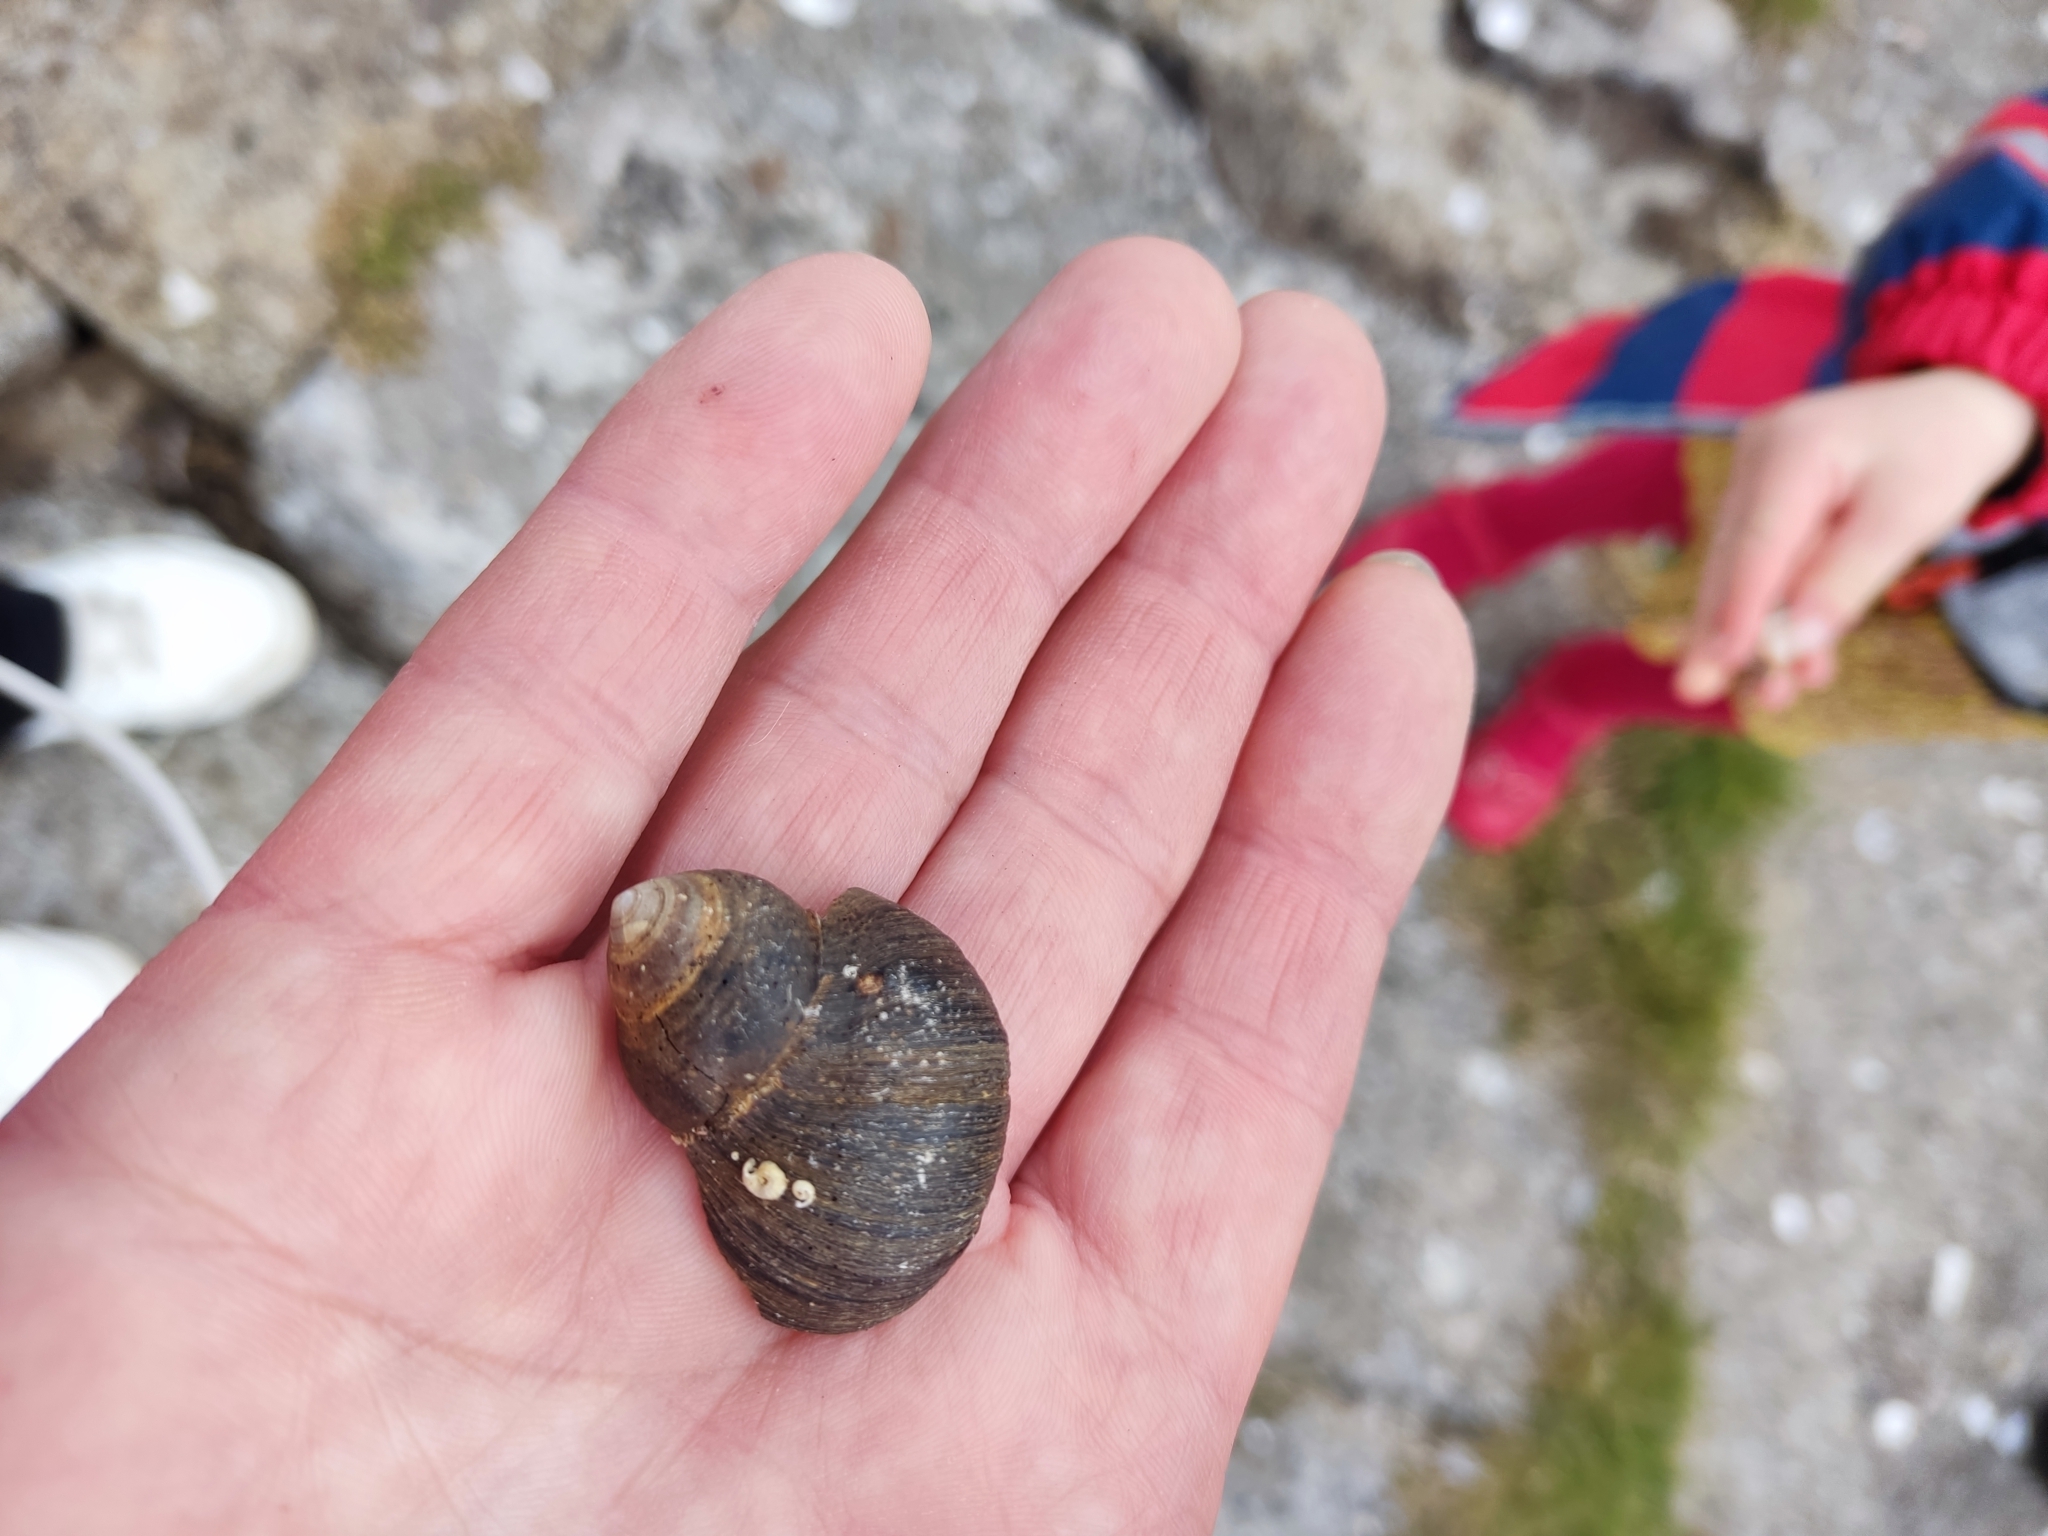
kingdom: Animalia
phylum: Mollusca
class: Gastropoda
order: Littorinimorpha
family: Littorinidae
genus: Littorina
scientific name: Littorina littorea
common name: Common periwinkle
